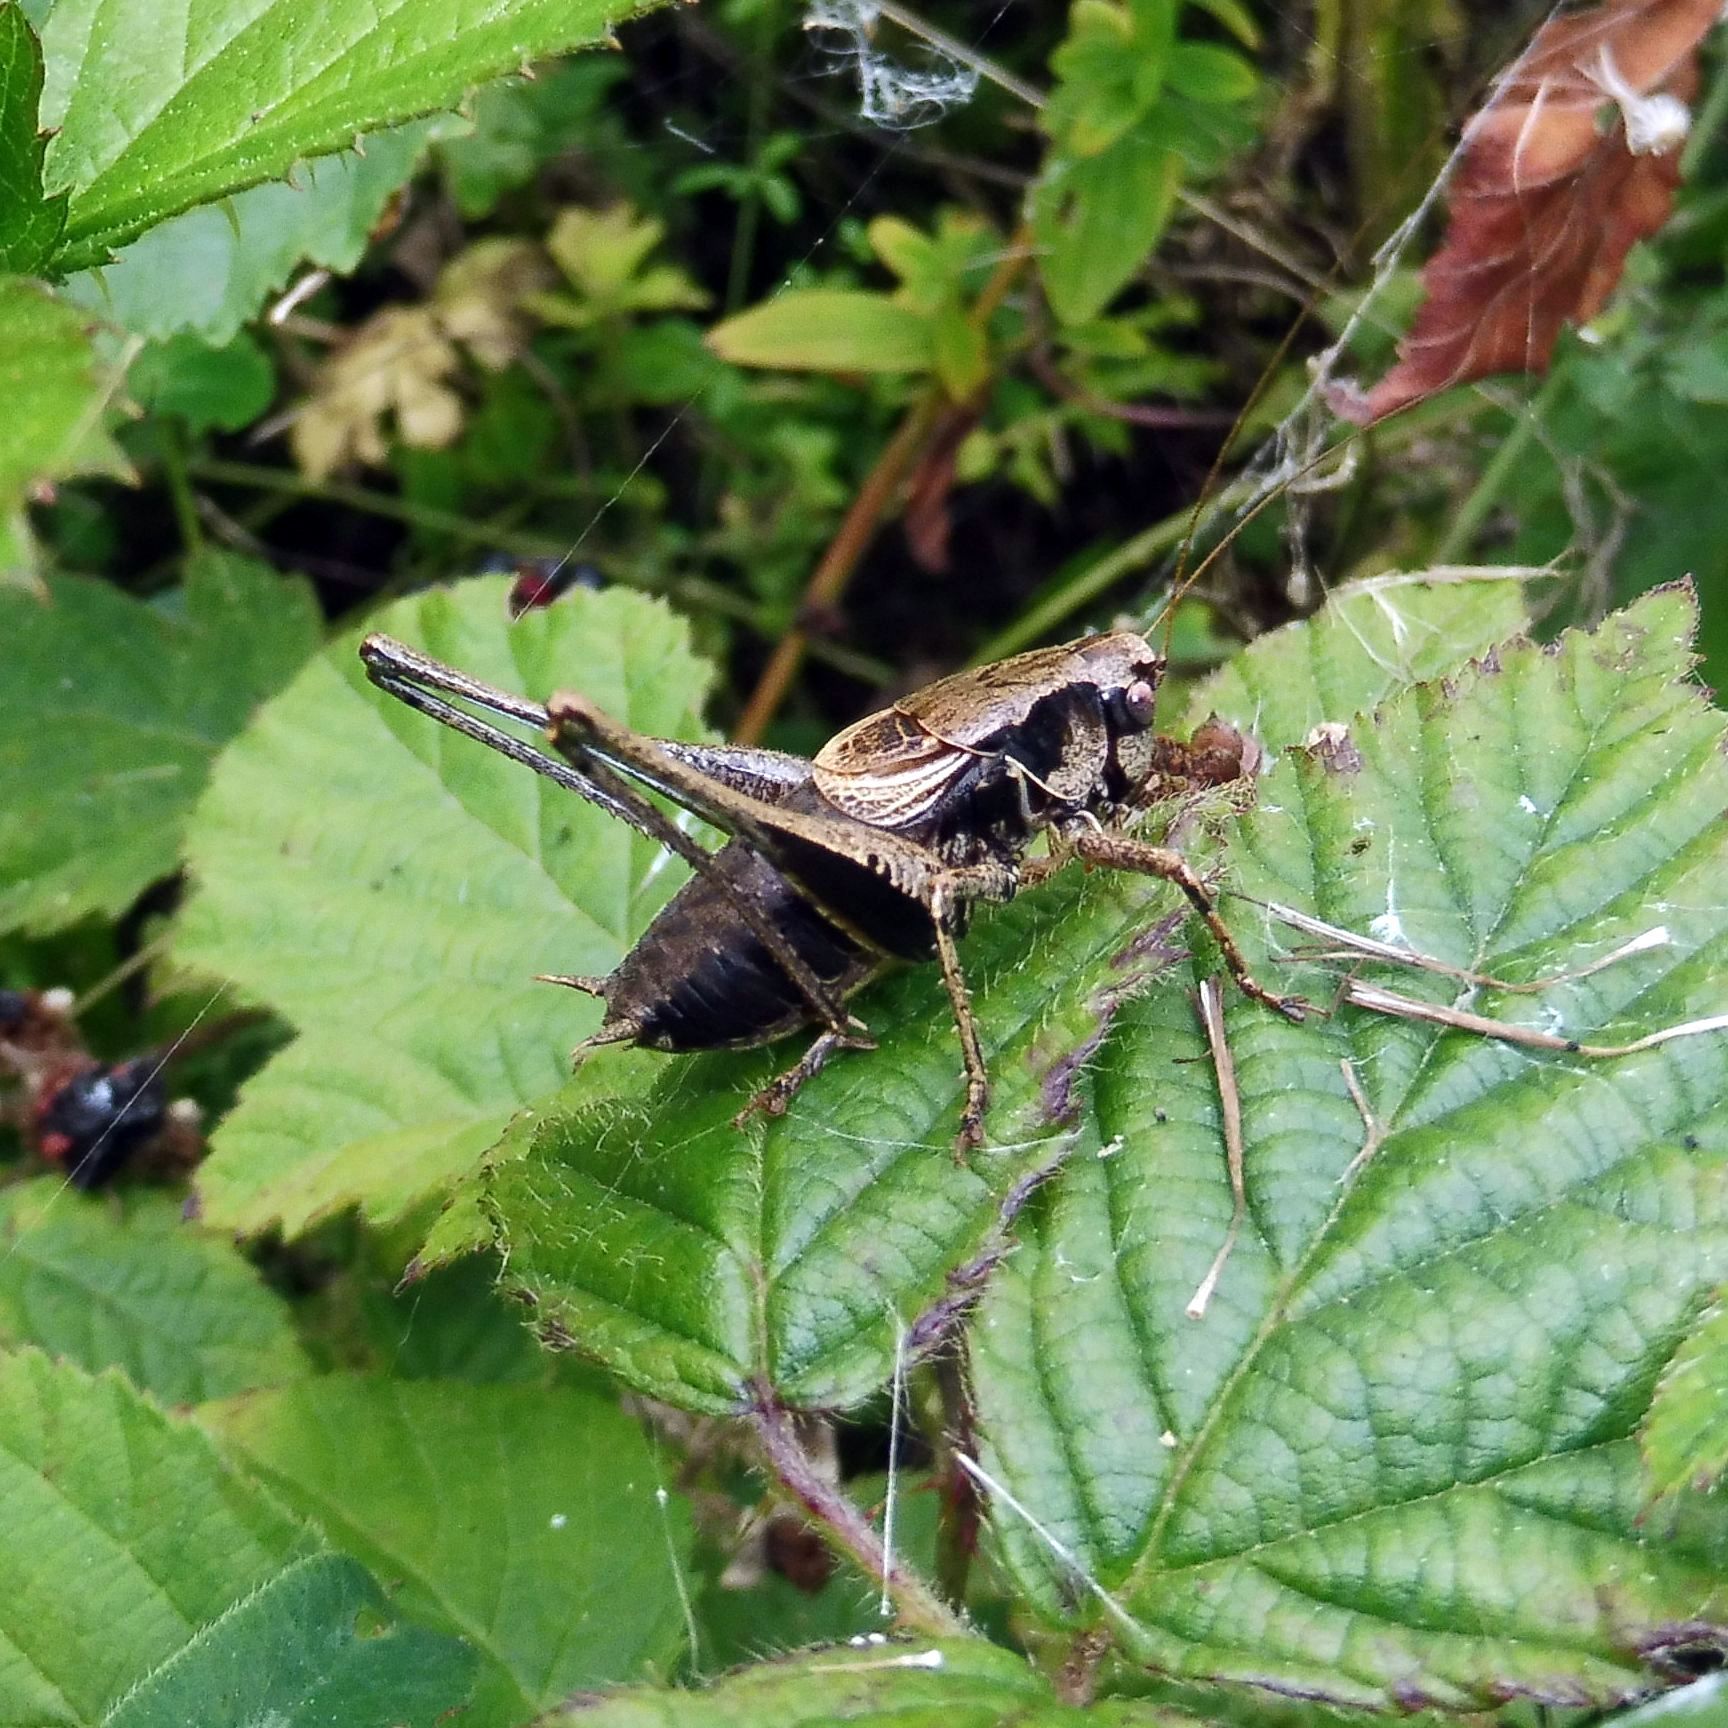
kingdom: Animalia
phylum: Arthropoda
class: Insecta
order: Orthoptera
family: Tettigoniidae
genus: Pholidoptera
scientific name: Pholidoptera griseoaptera
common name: Dark bush-cricket
